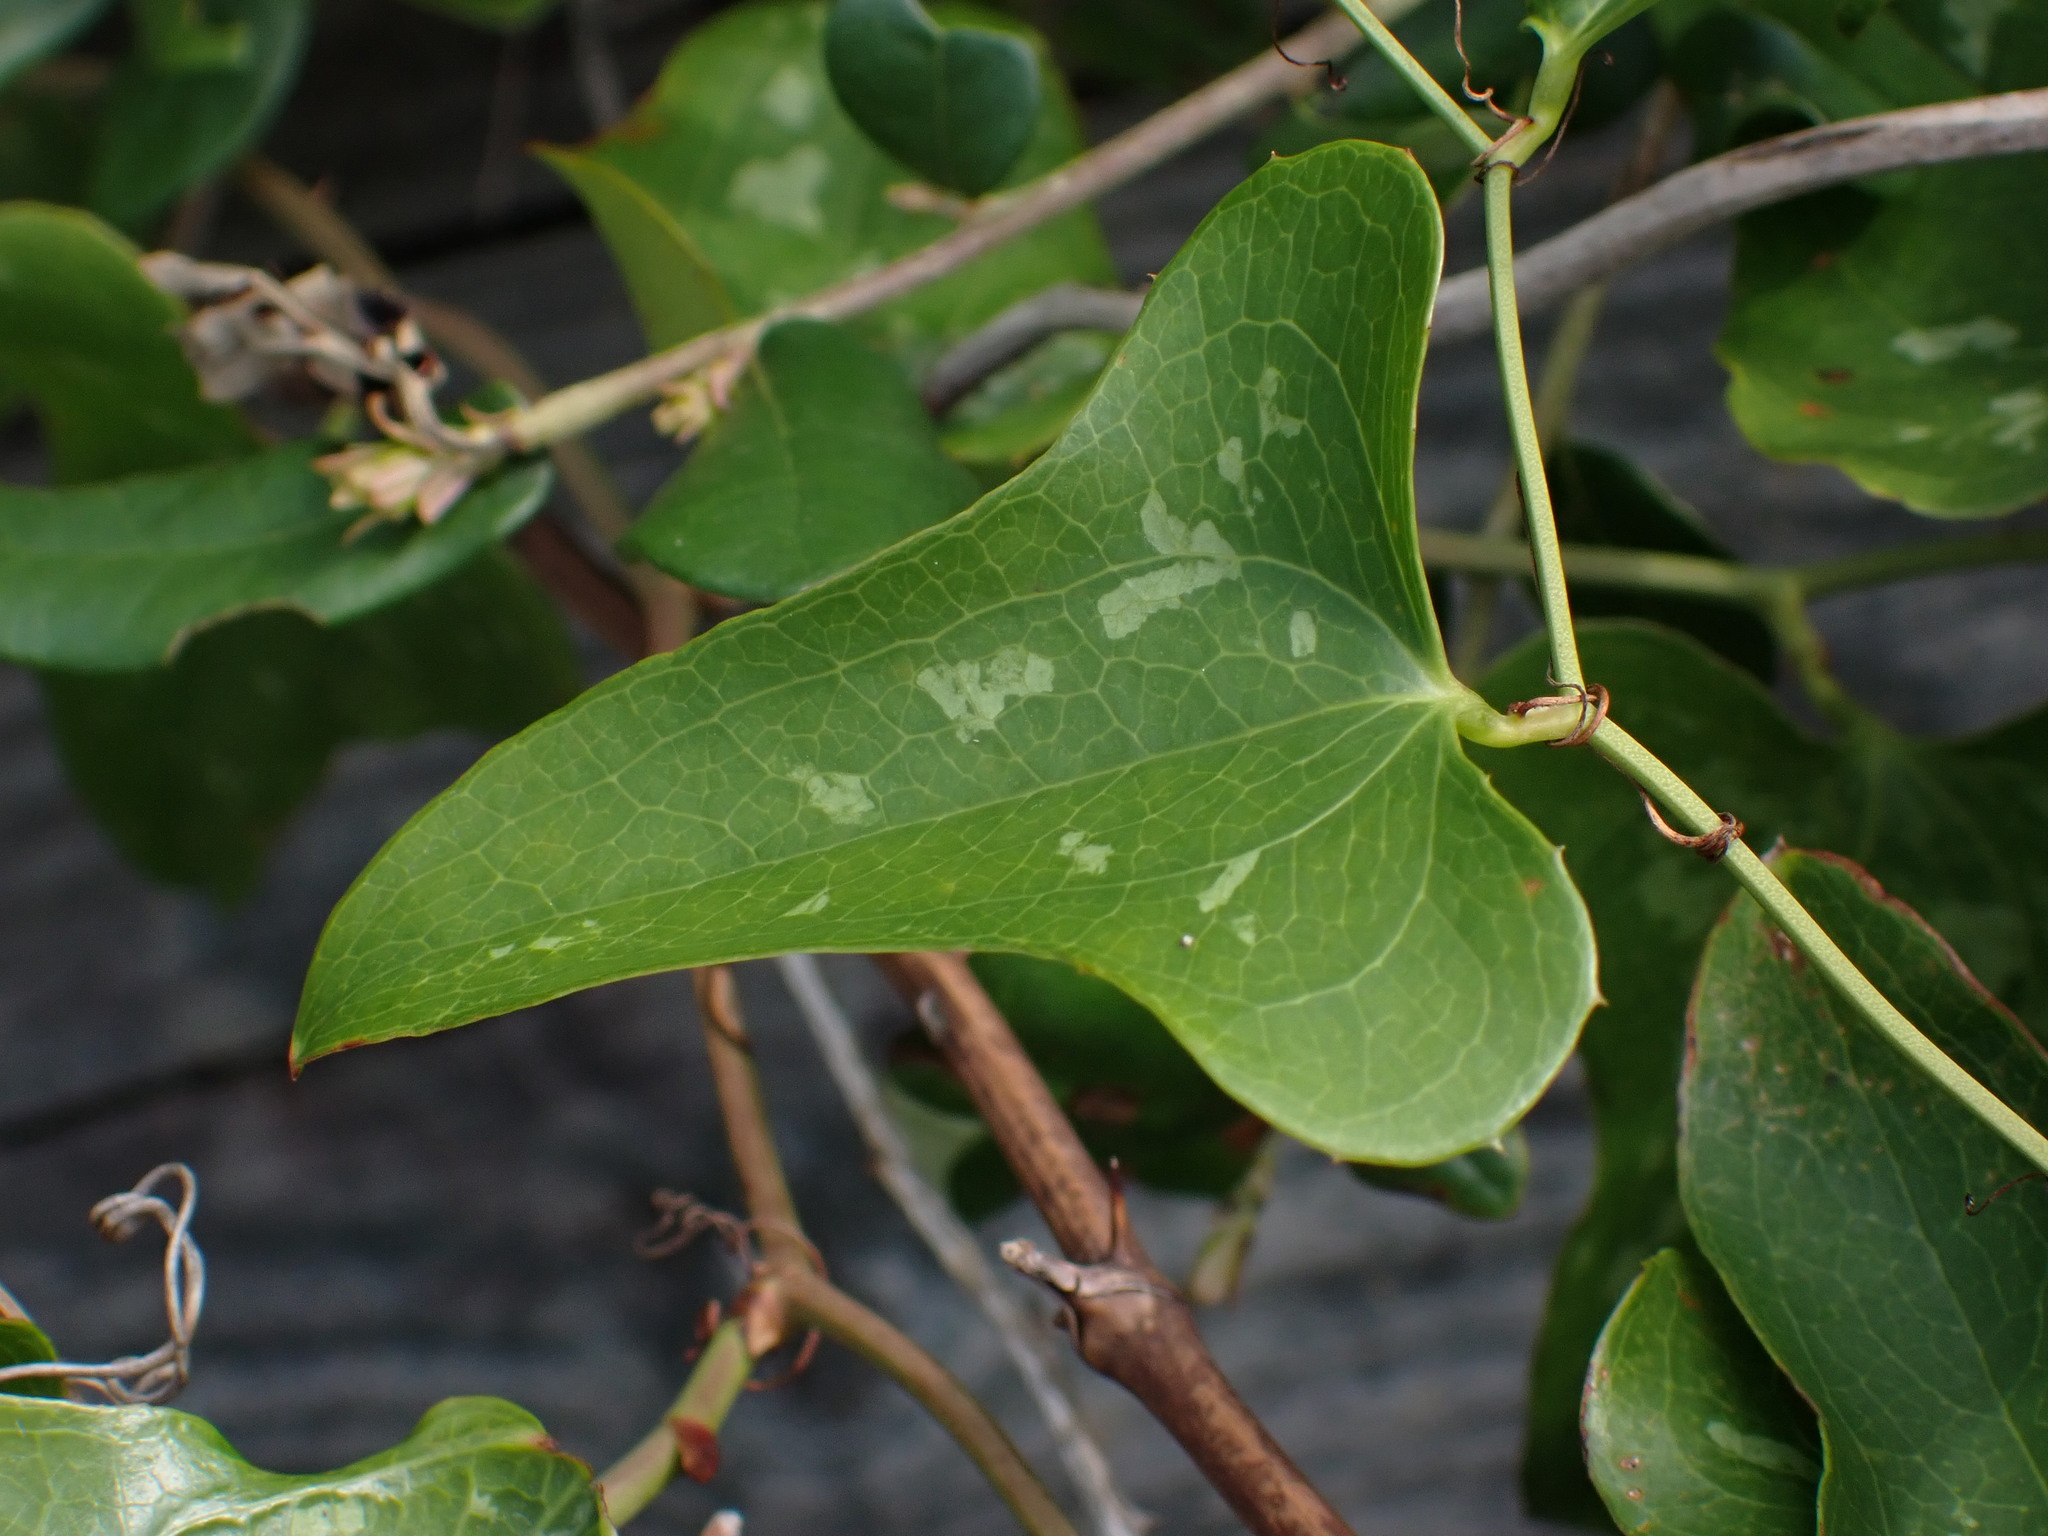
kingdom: Plantae
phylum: Tracheophyta
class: Liliopsida
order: Liliales
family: Smilacaceae
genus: Smilax
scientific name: Smilax bona-nox
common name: Catbrier
